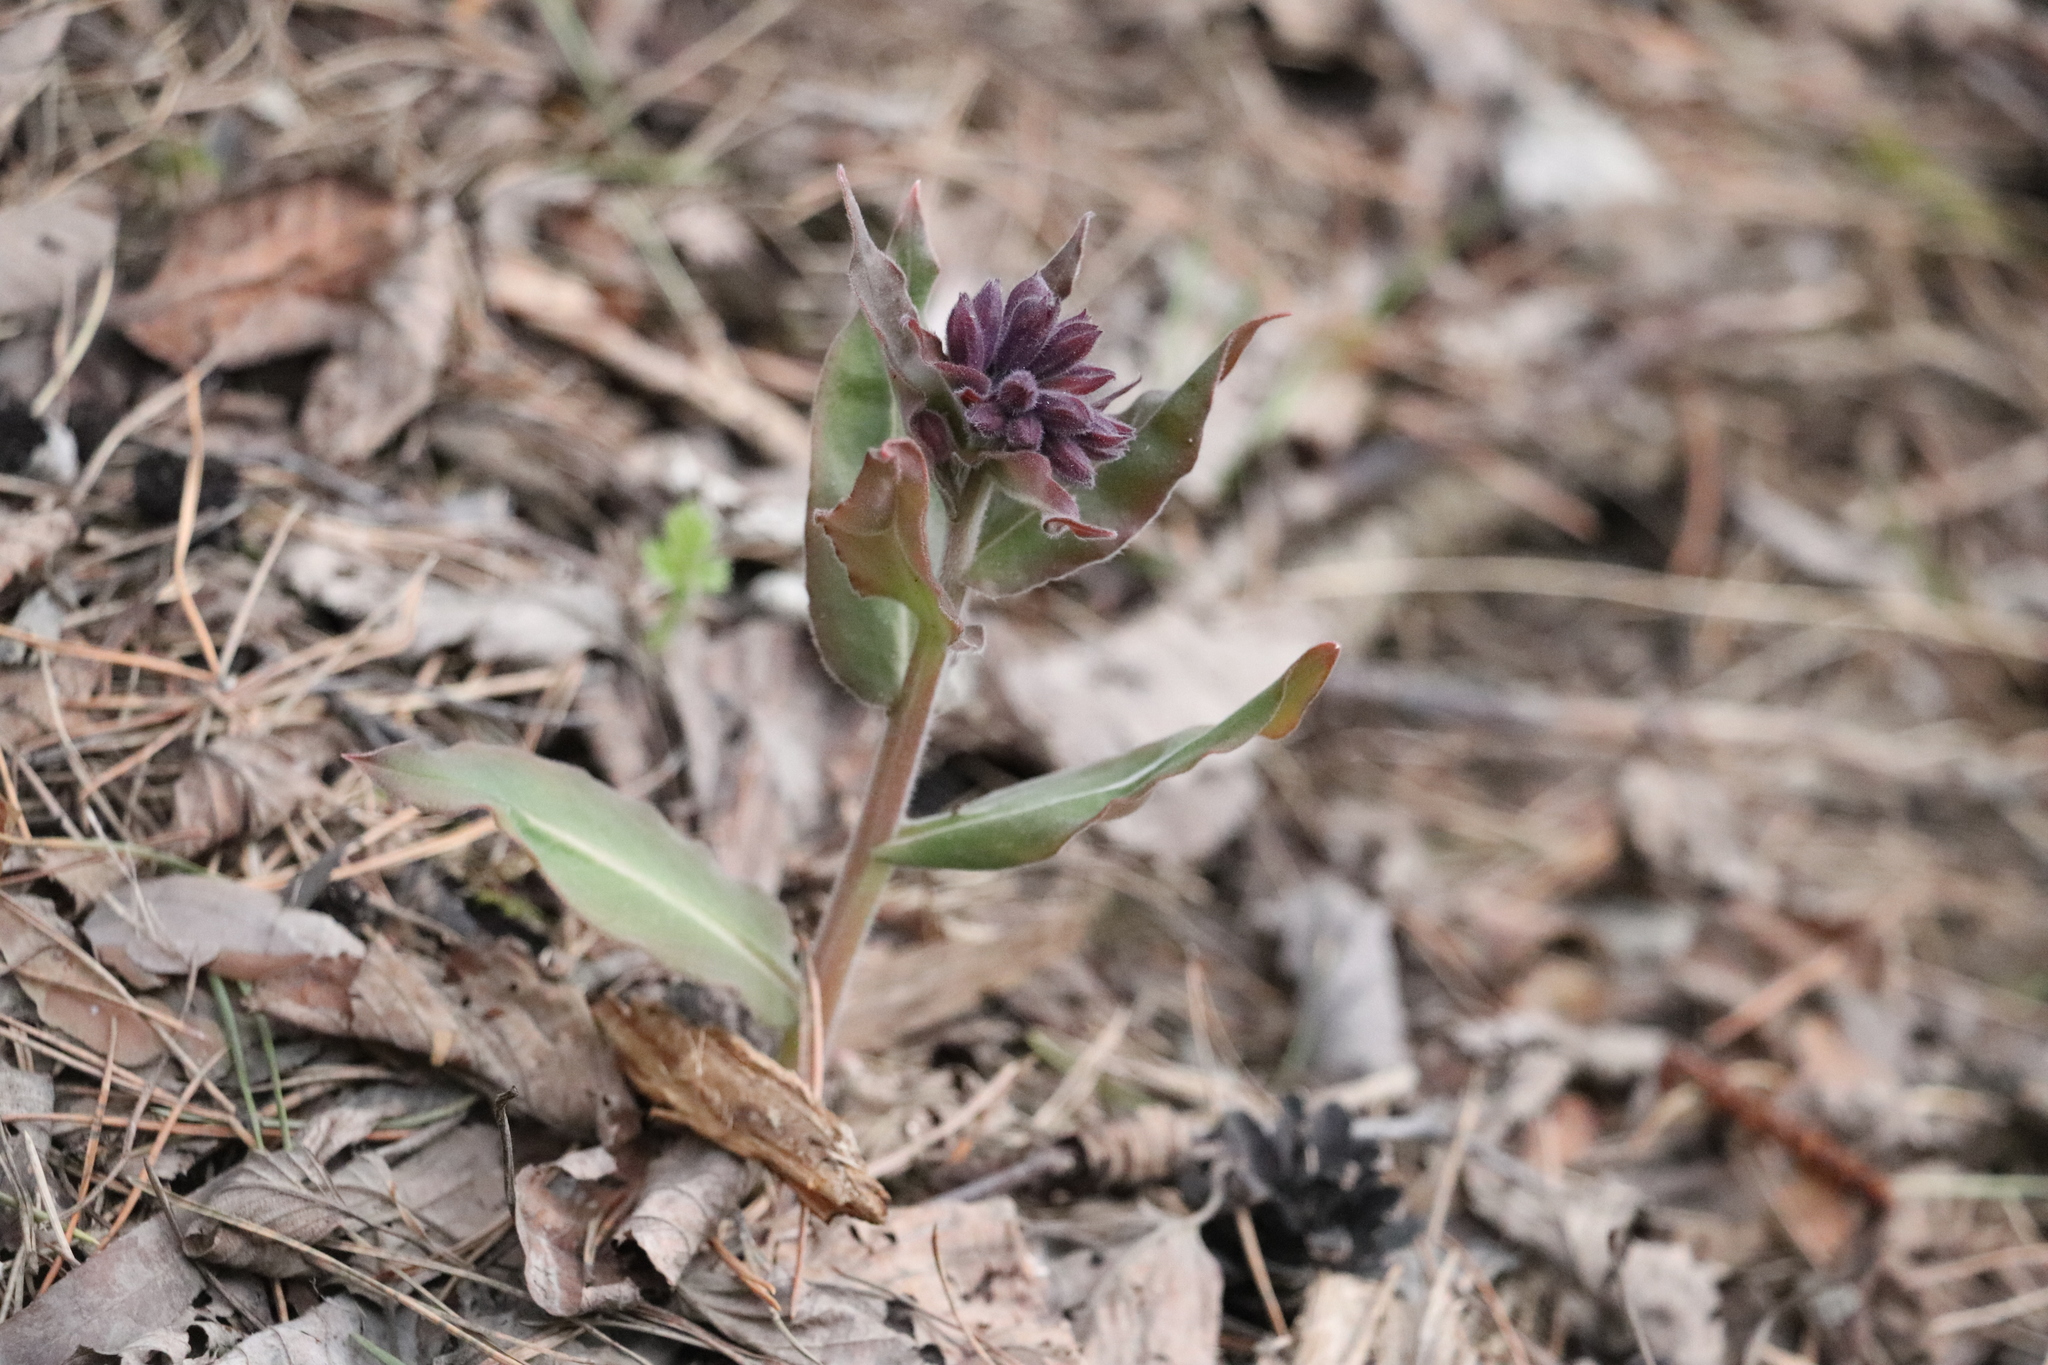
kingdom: Plantae
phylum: Tracheophyta
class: Magnoliopsida
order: Boraginales
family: Boraginaceae
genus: Pulmonaria
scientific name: Pulmonaria mollis
